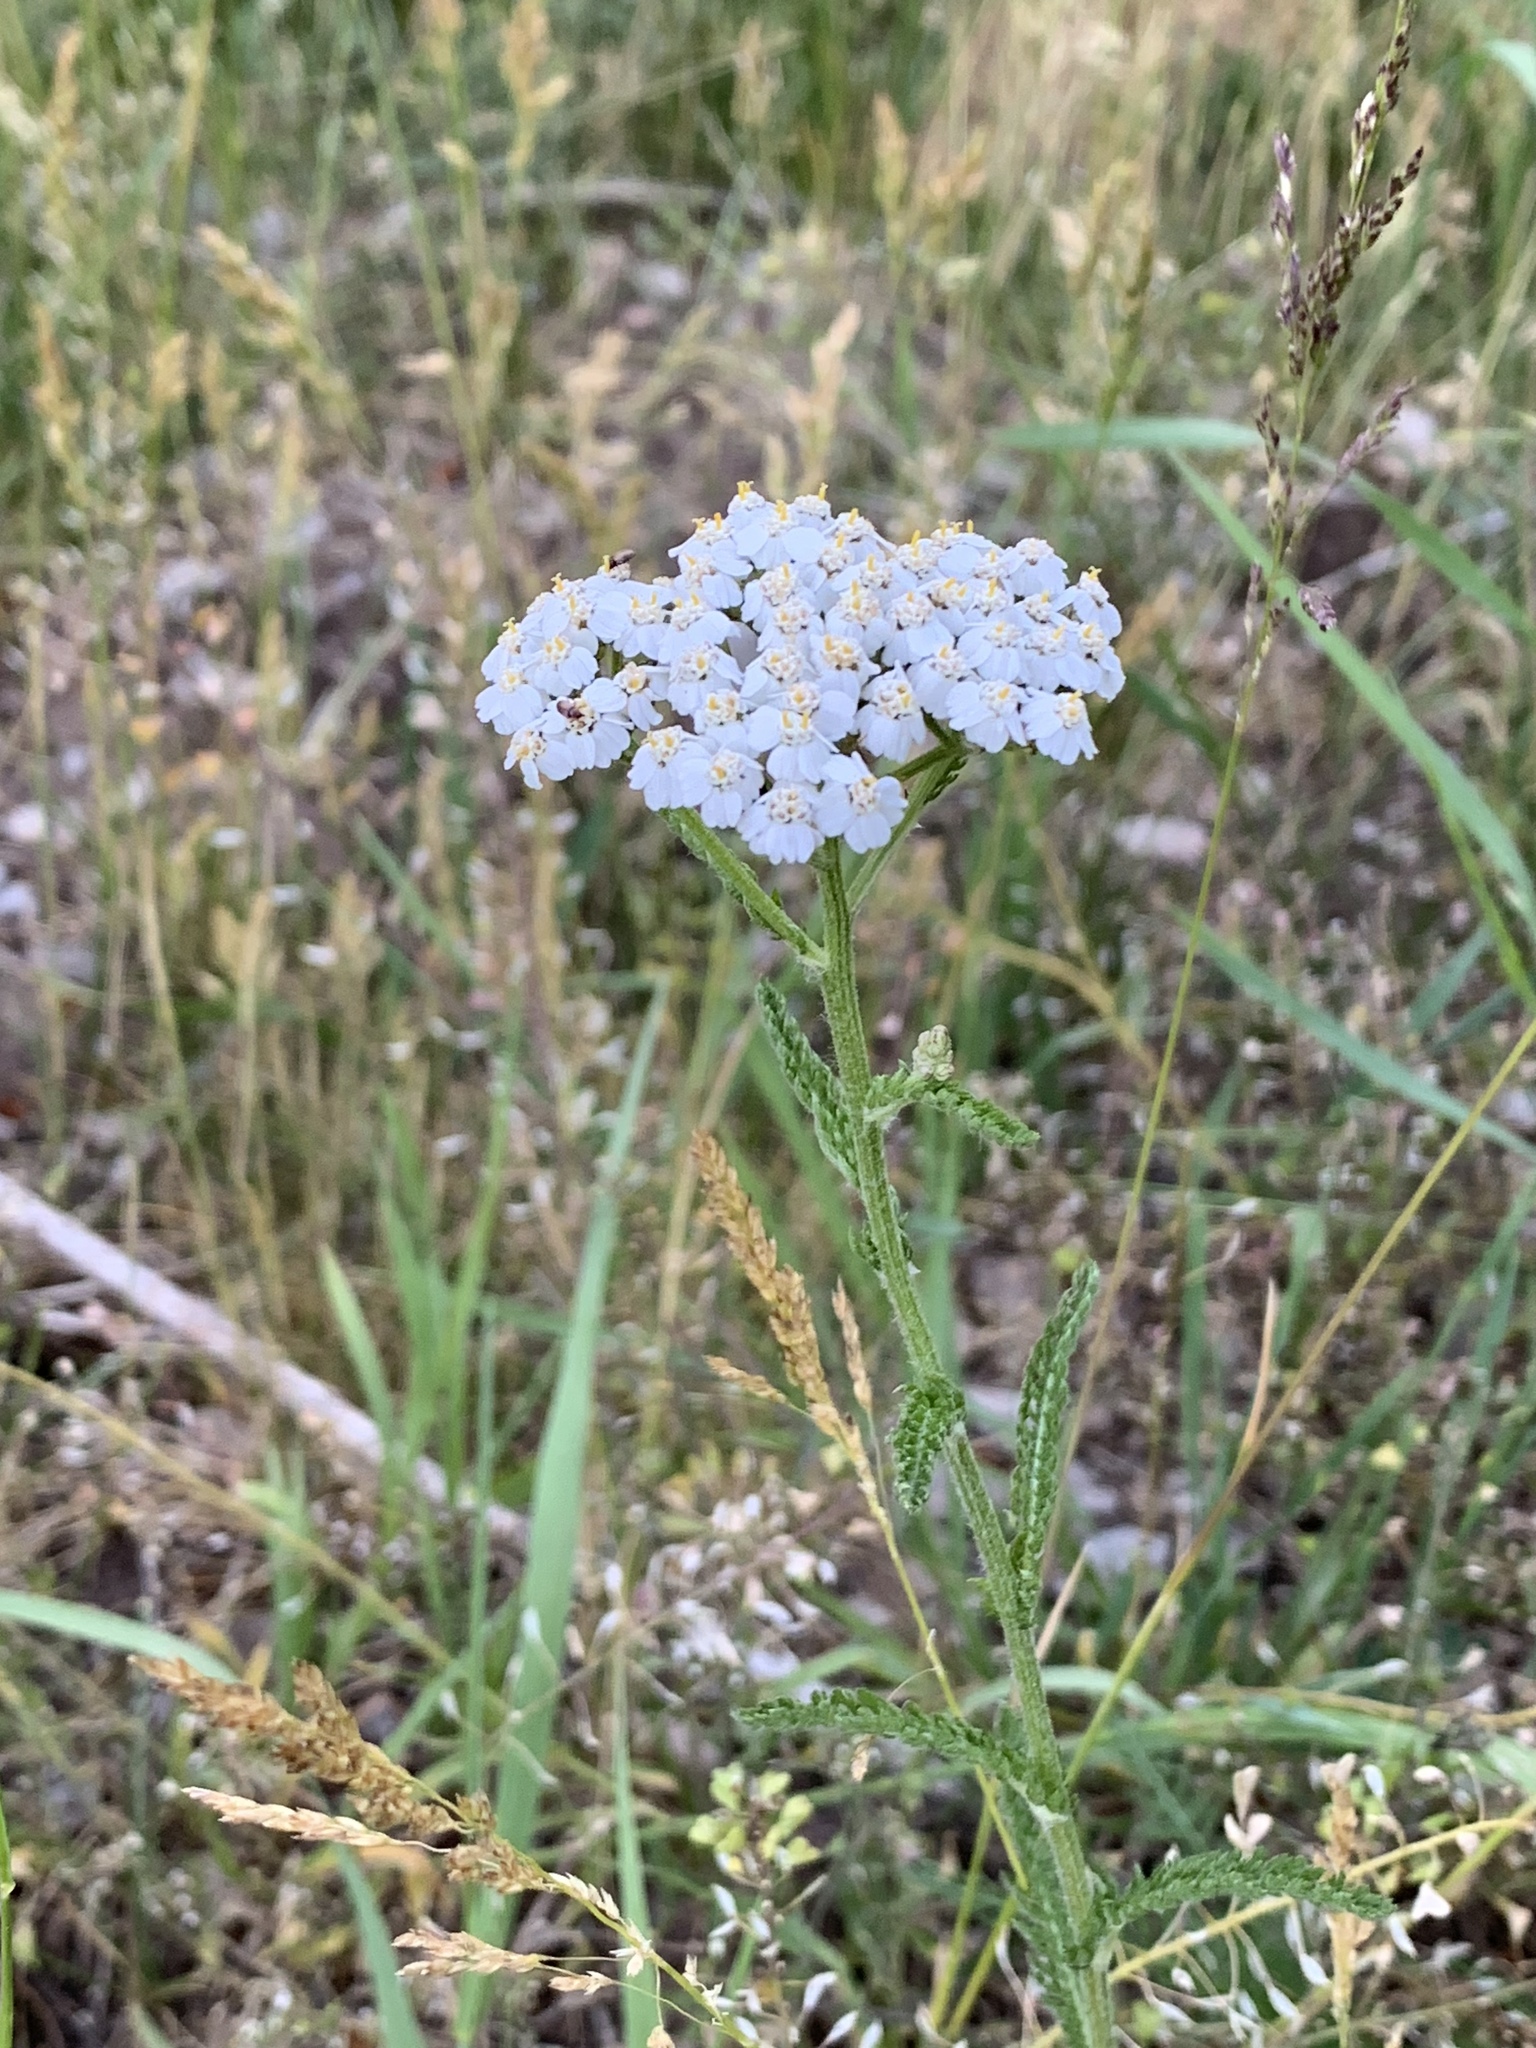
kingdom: Plantae
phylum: Tracheophyta
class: Magnoliopsida
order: Asterales
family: Asteraceae
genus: Achillea
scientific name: Achillea millefolium
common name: Yarrow
